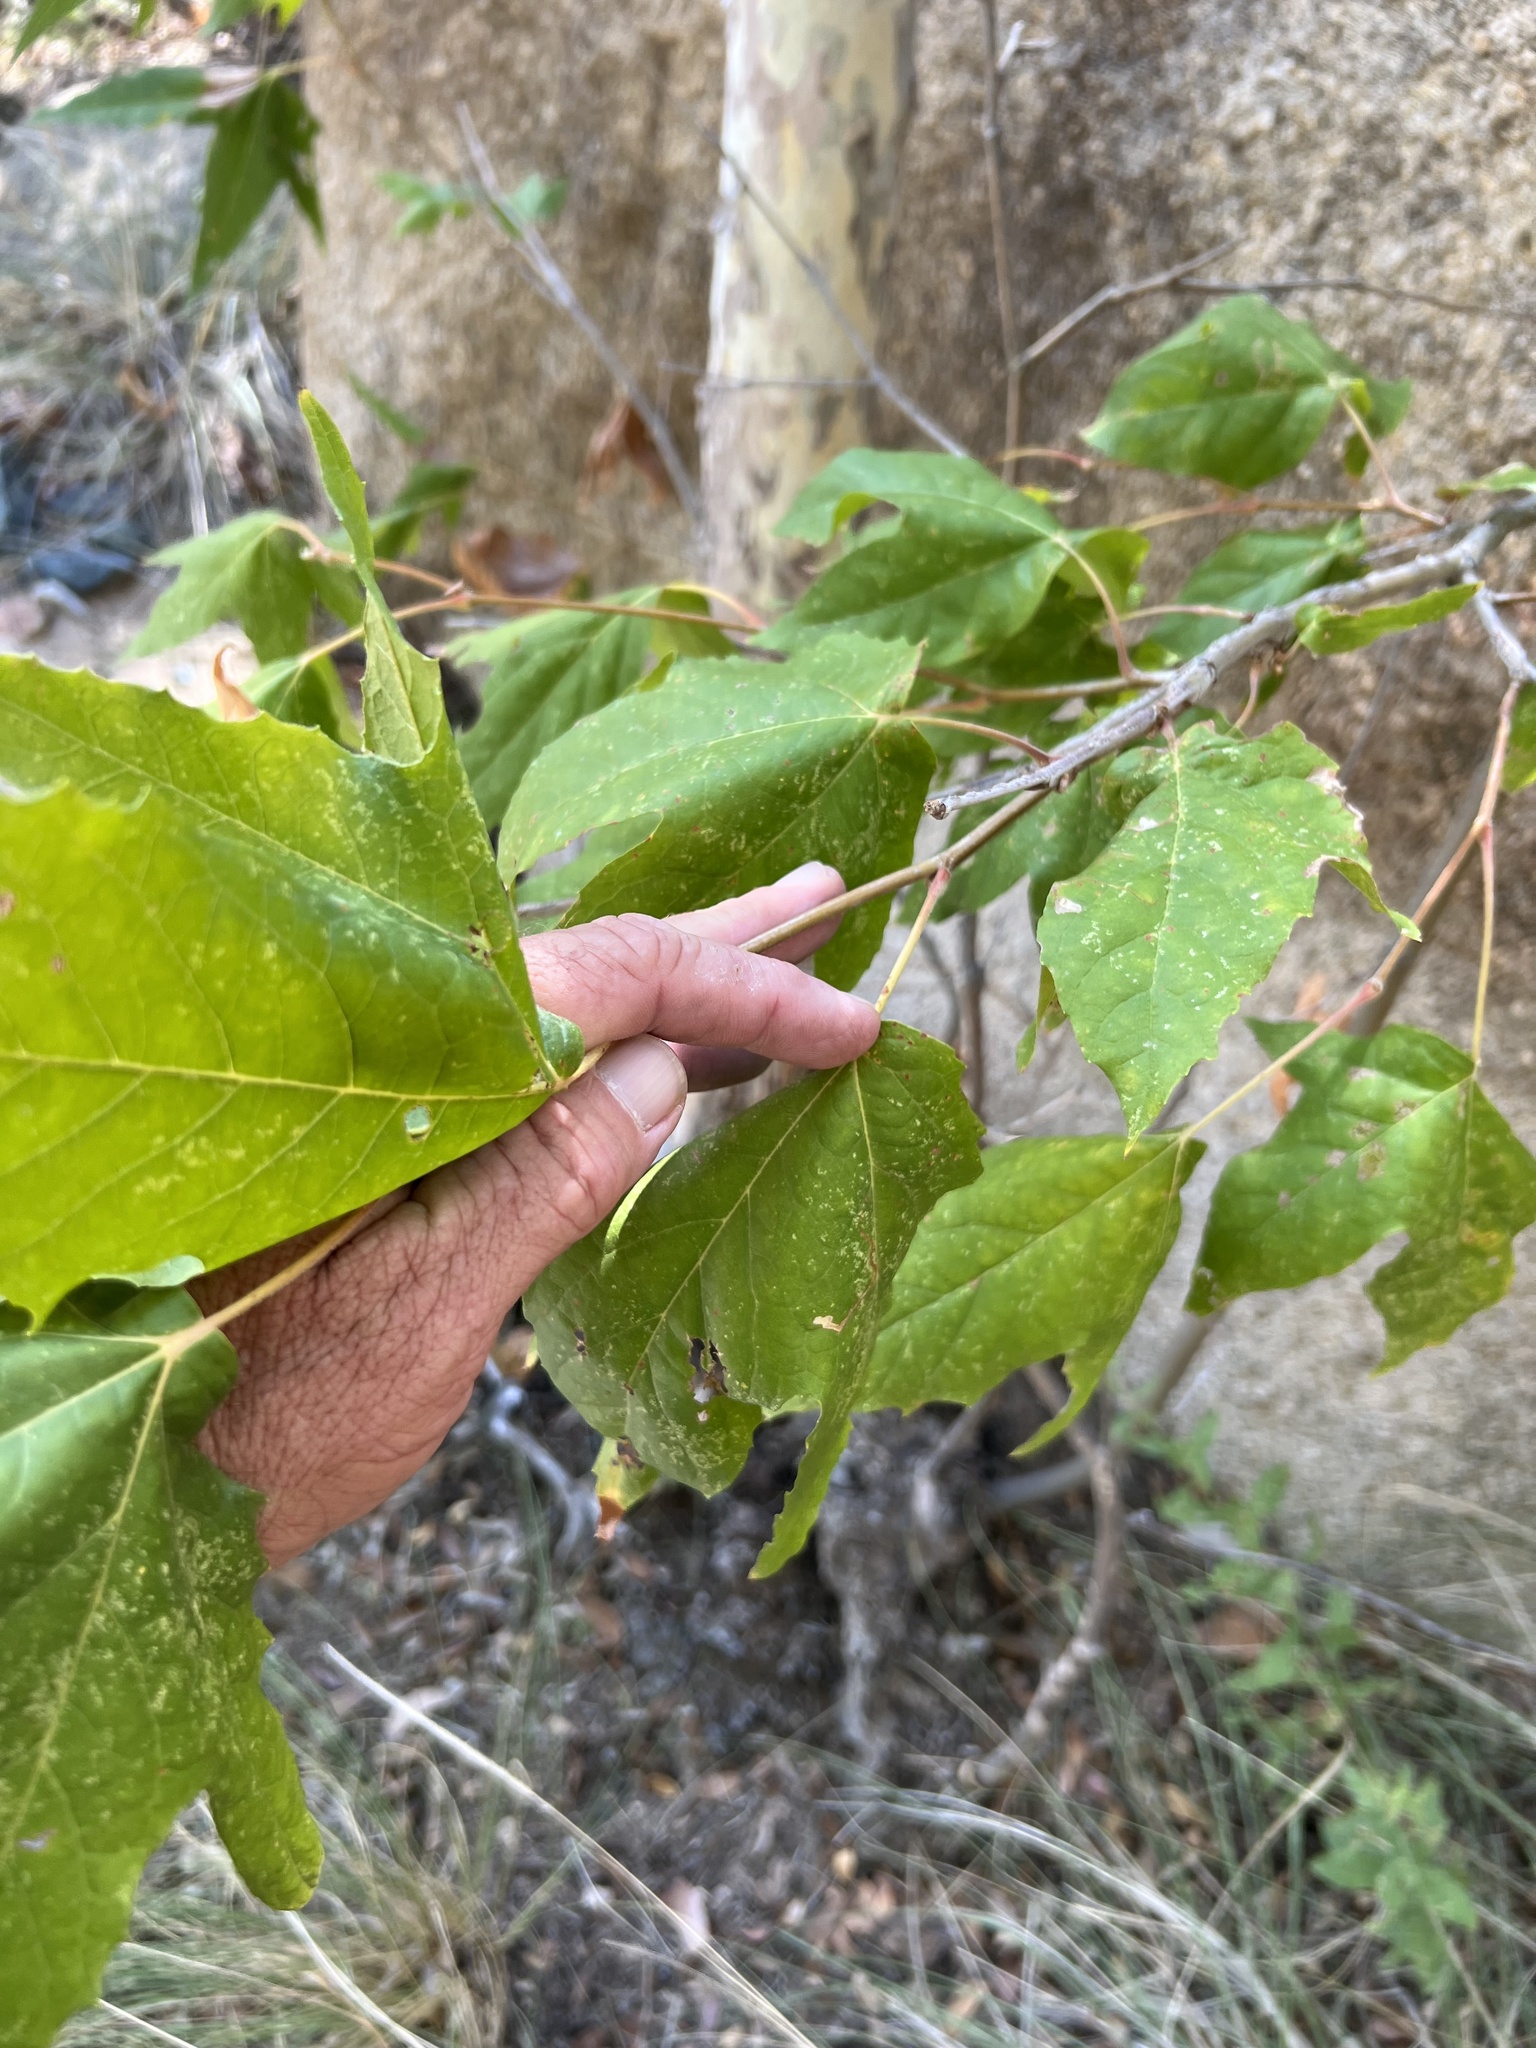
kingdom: Plantae
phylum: Tracheophyta
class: Magnoliopsida
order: Proteales
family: Platanaceae
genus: Platanus
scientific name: Platanus wrightii
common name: Arizona sycamore
